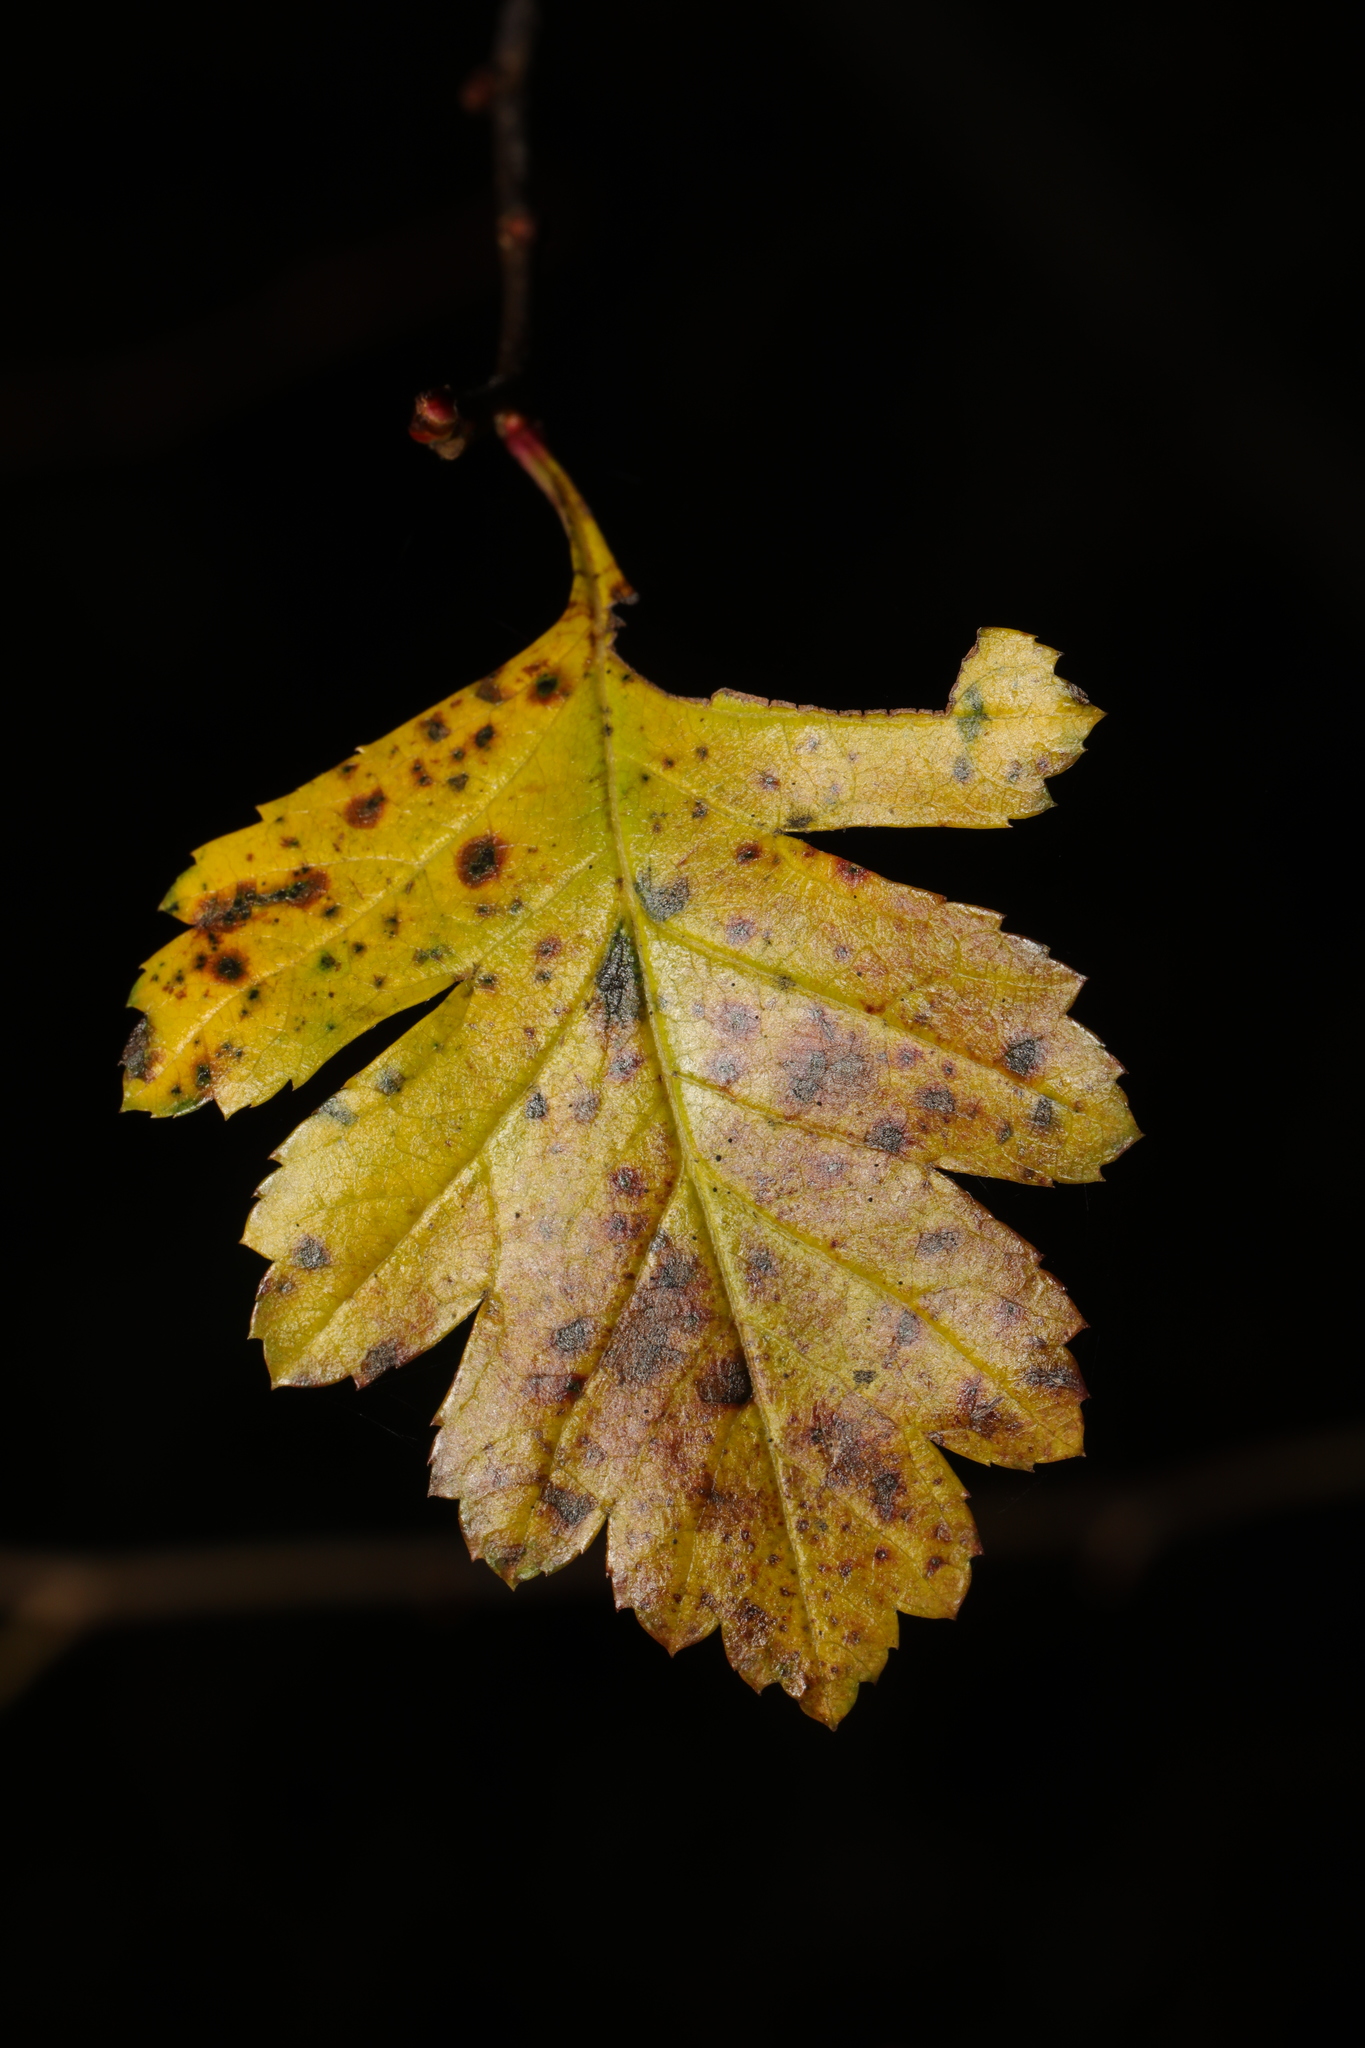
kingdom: Plantae
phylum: Tracheophyta
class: Magnoliopsida
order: Rosales
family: Rosaceae
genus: Crataegus
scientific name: Crataegus monogyna
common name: Hawthorn
